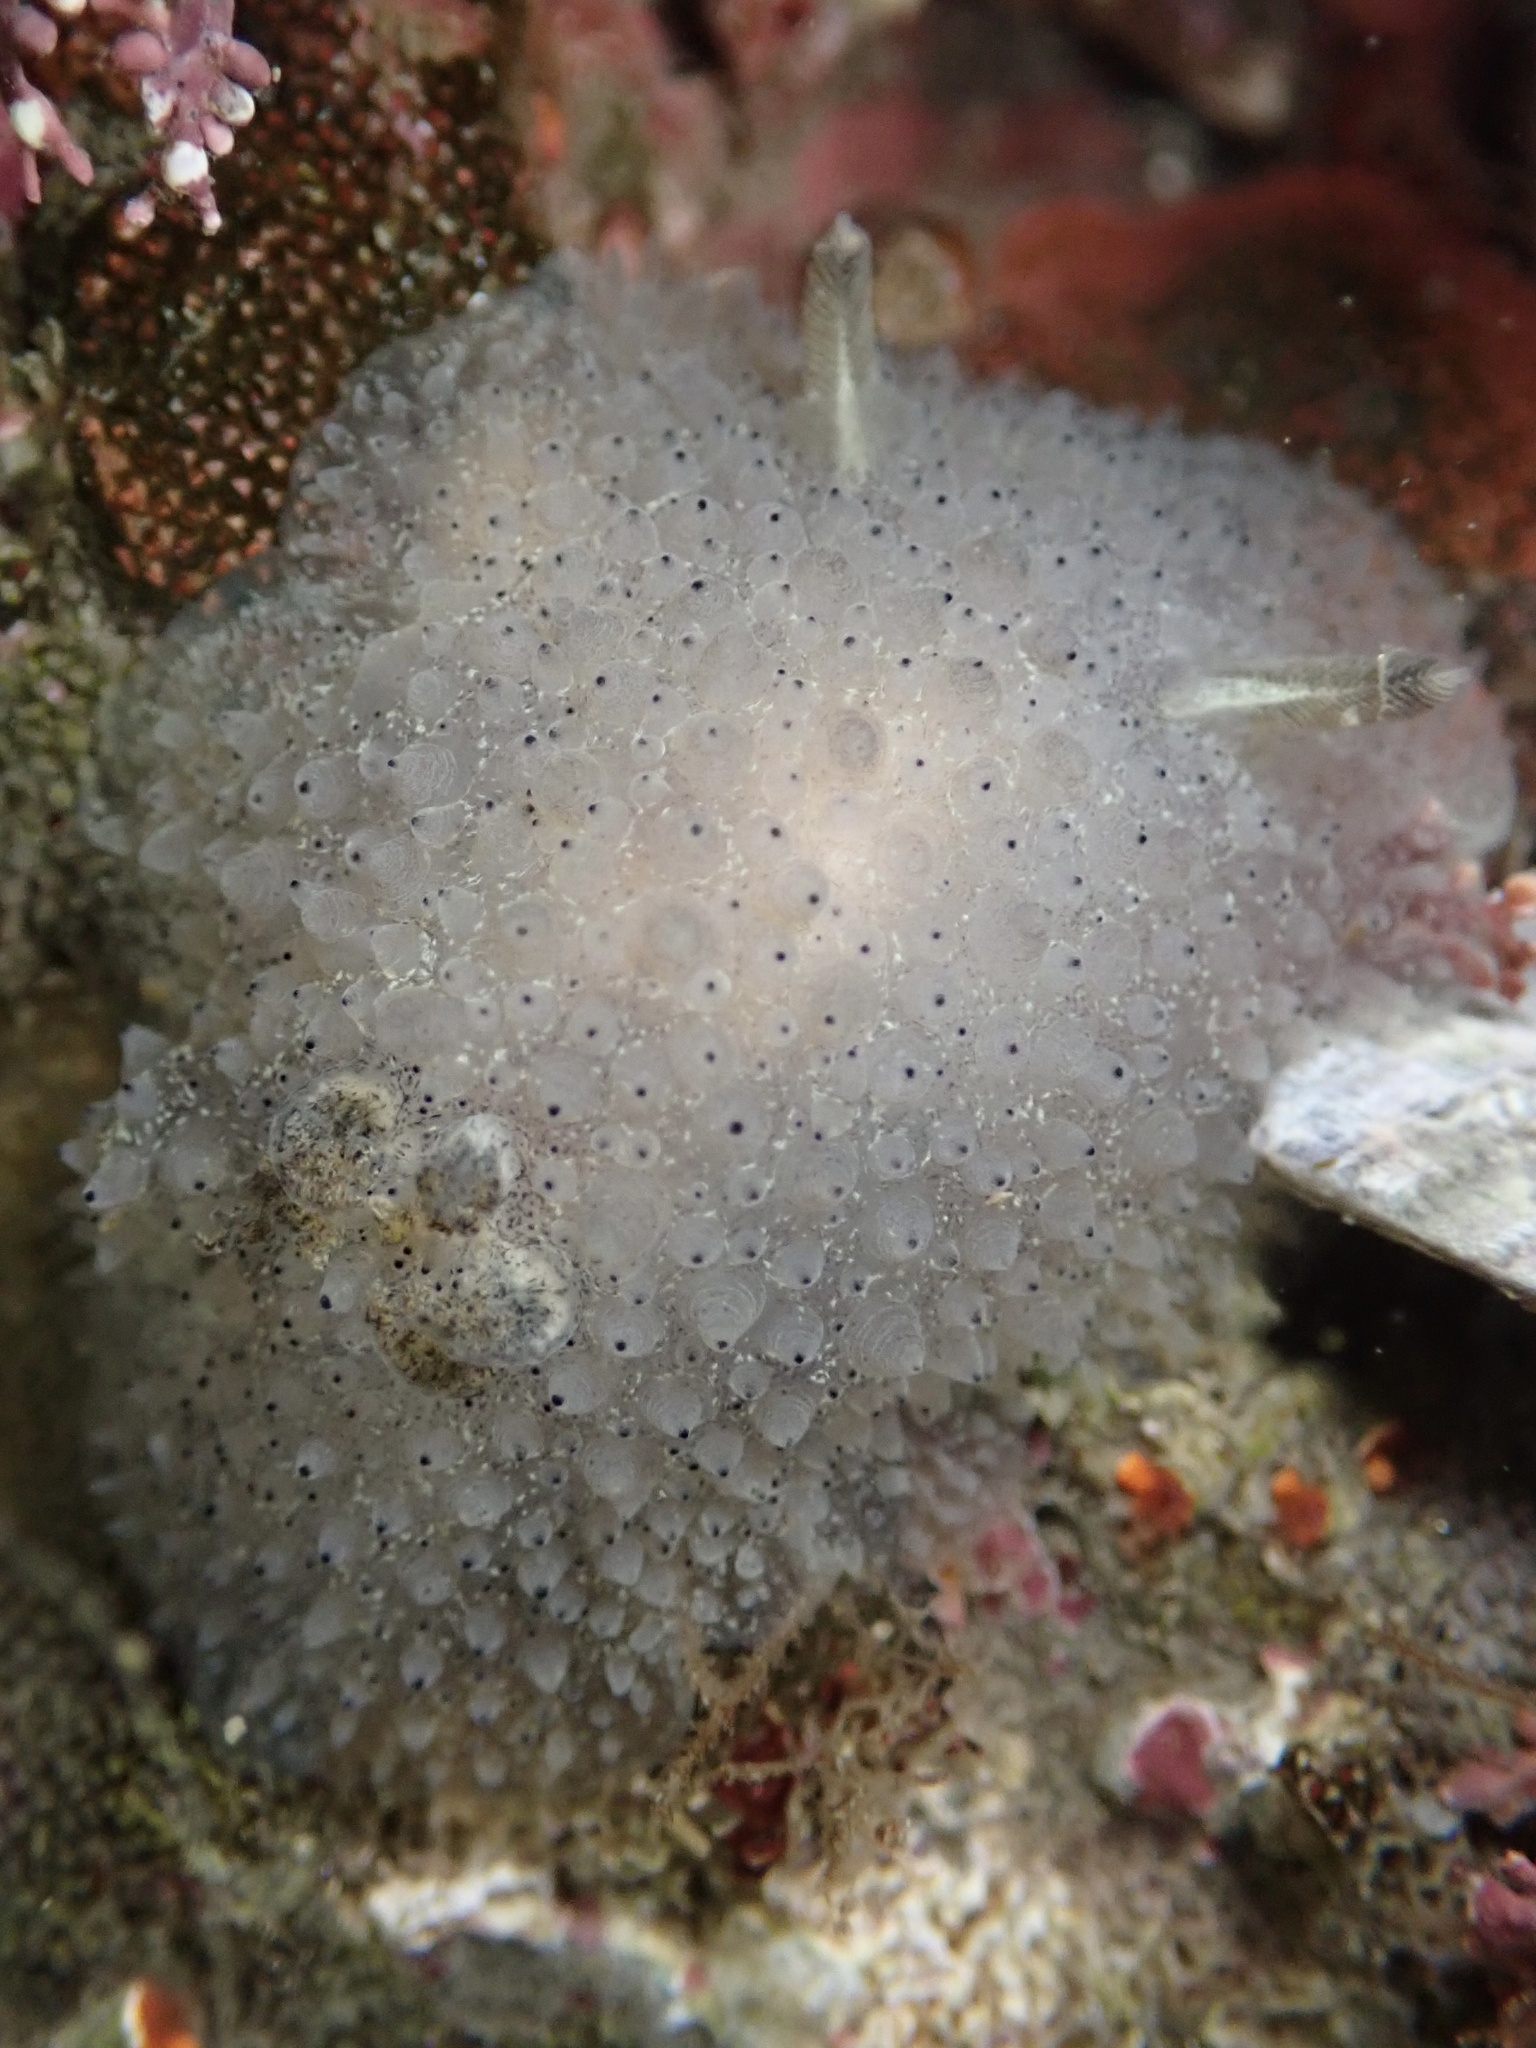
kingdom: Animalia
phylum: Mollusca
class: Gastropoda
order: Nudibranchia
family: Onchidorididae
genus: Acanthodoris
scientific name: Acanthodoris rhodoceras
